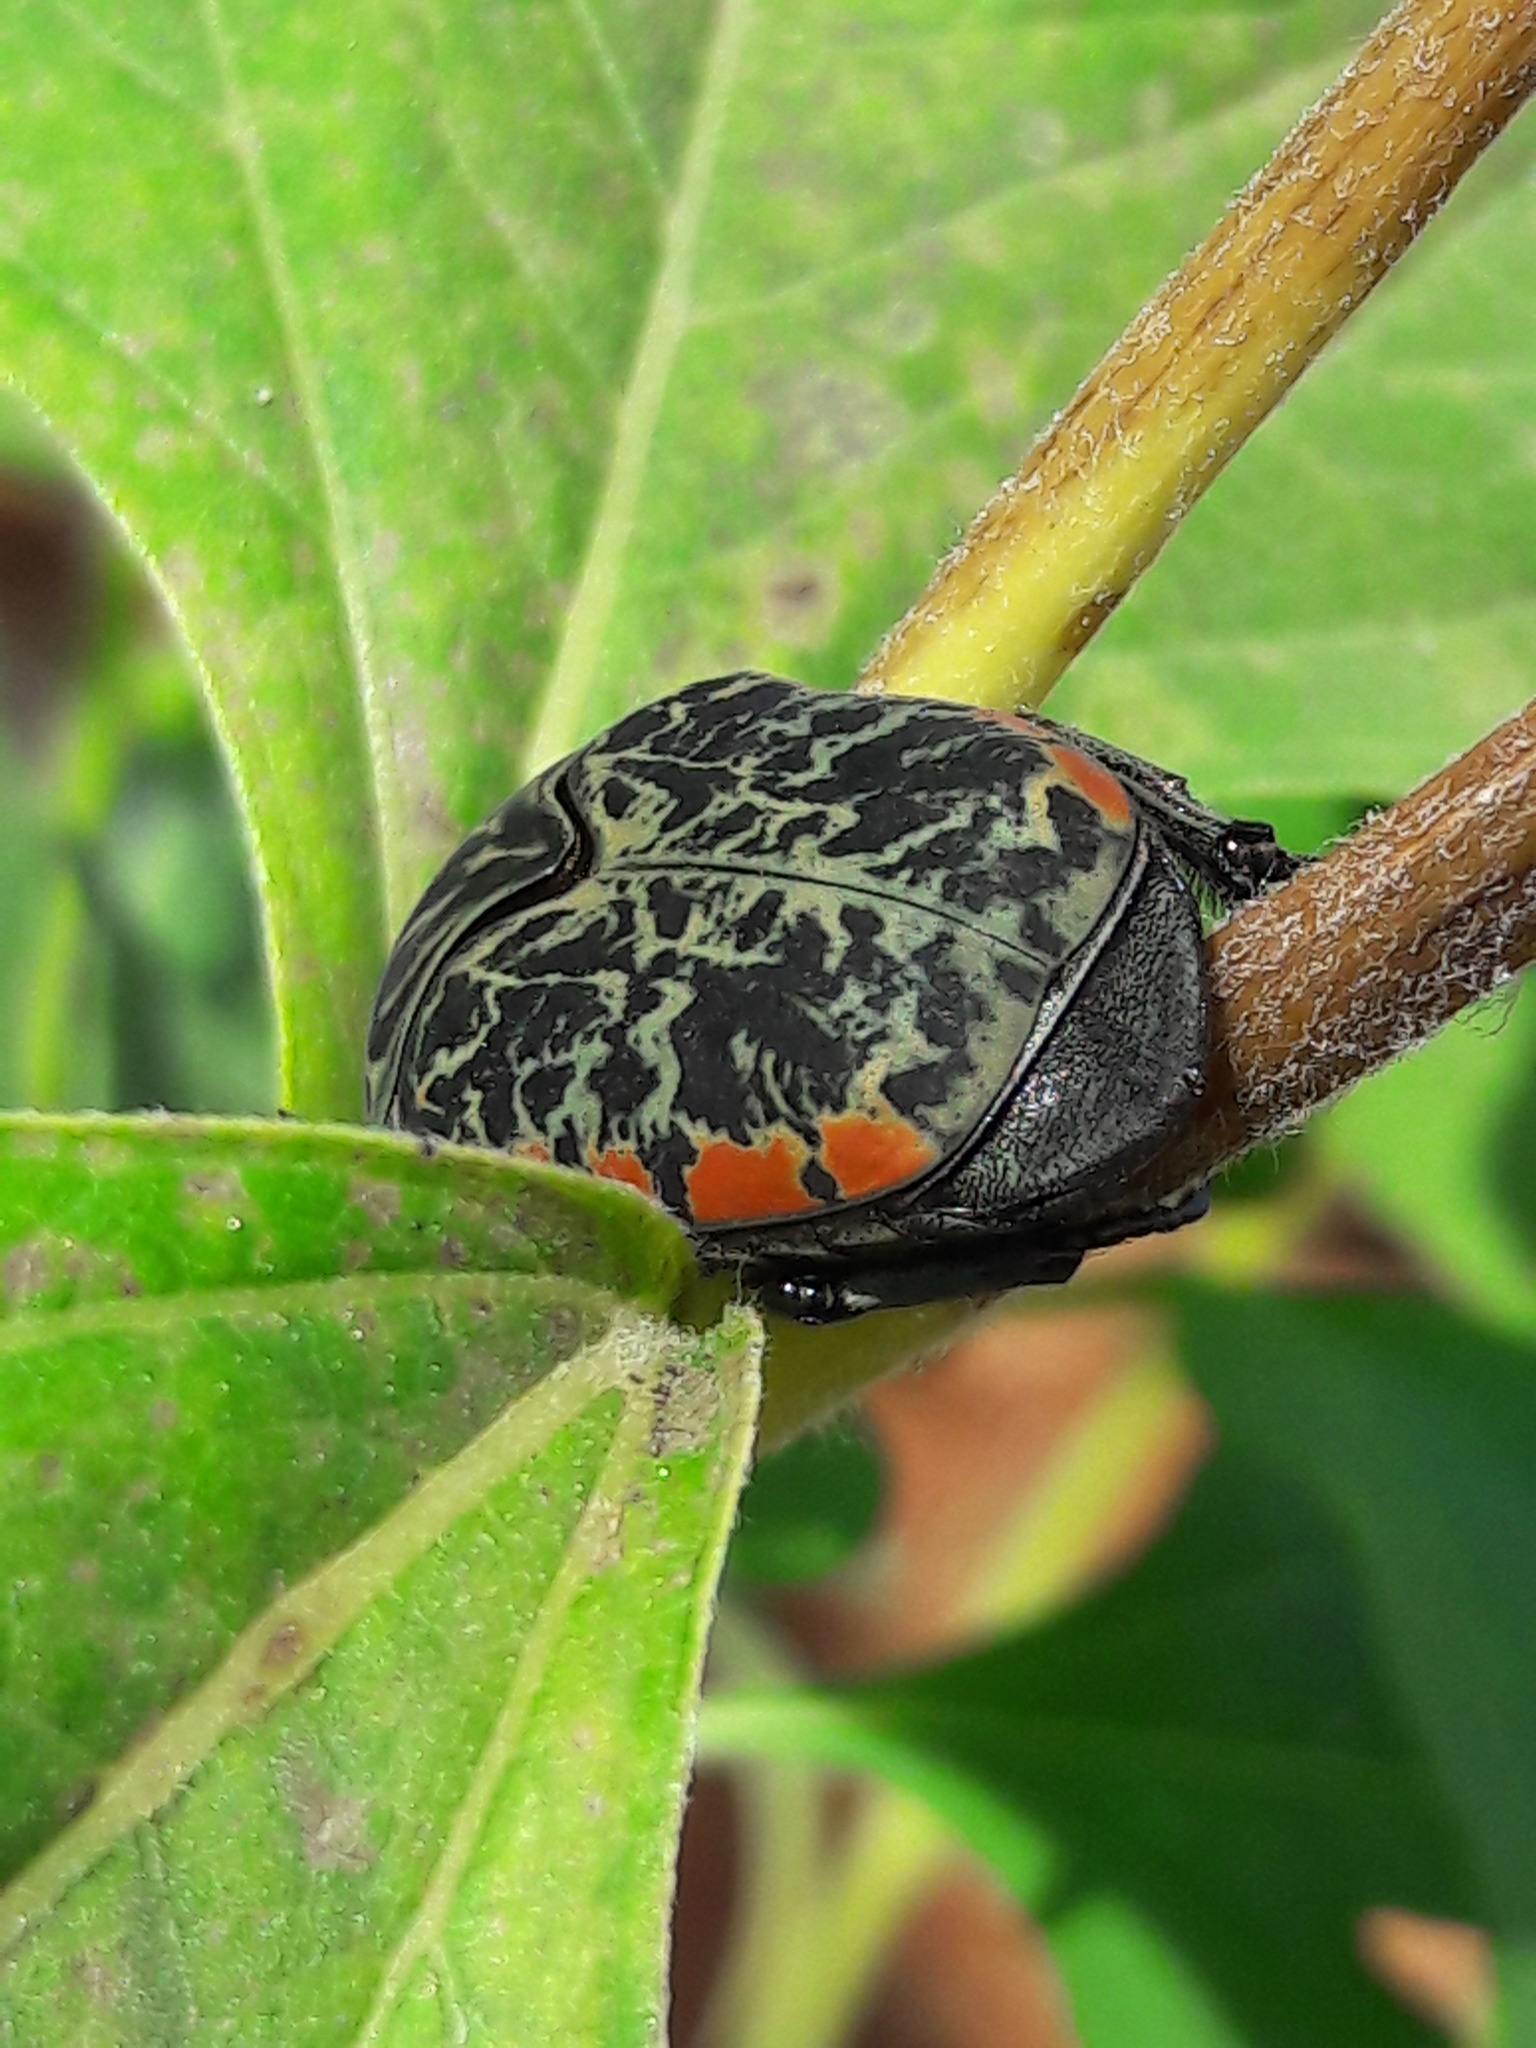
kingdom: Animalia
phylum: Arthropoda
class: Insecta
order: Coleoptera
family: Scarabaeidae
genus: Gymnetis
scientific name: Gymnetis rufilatris
